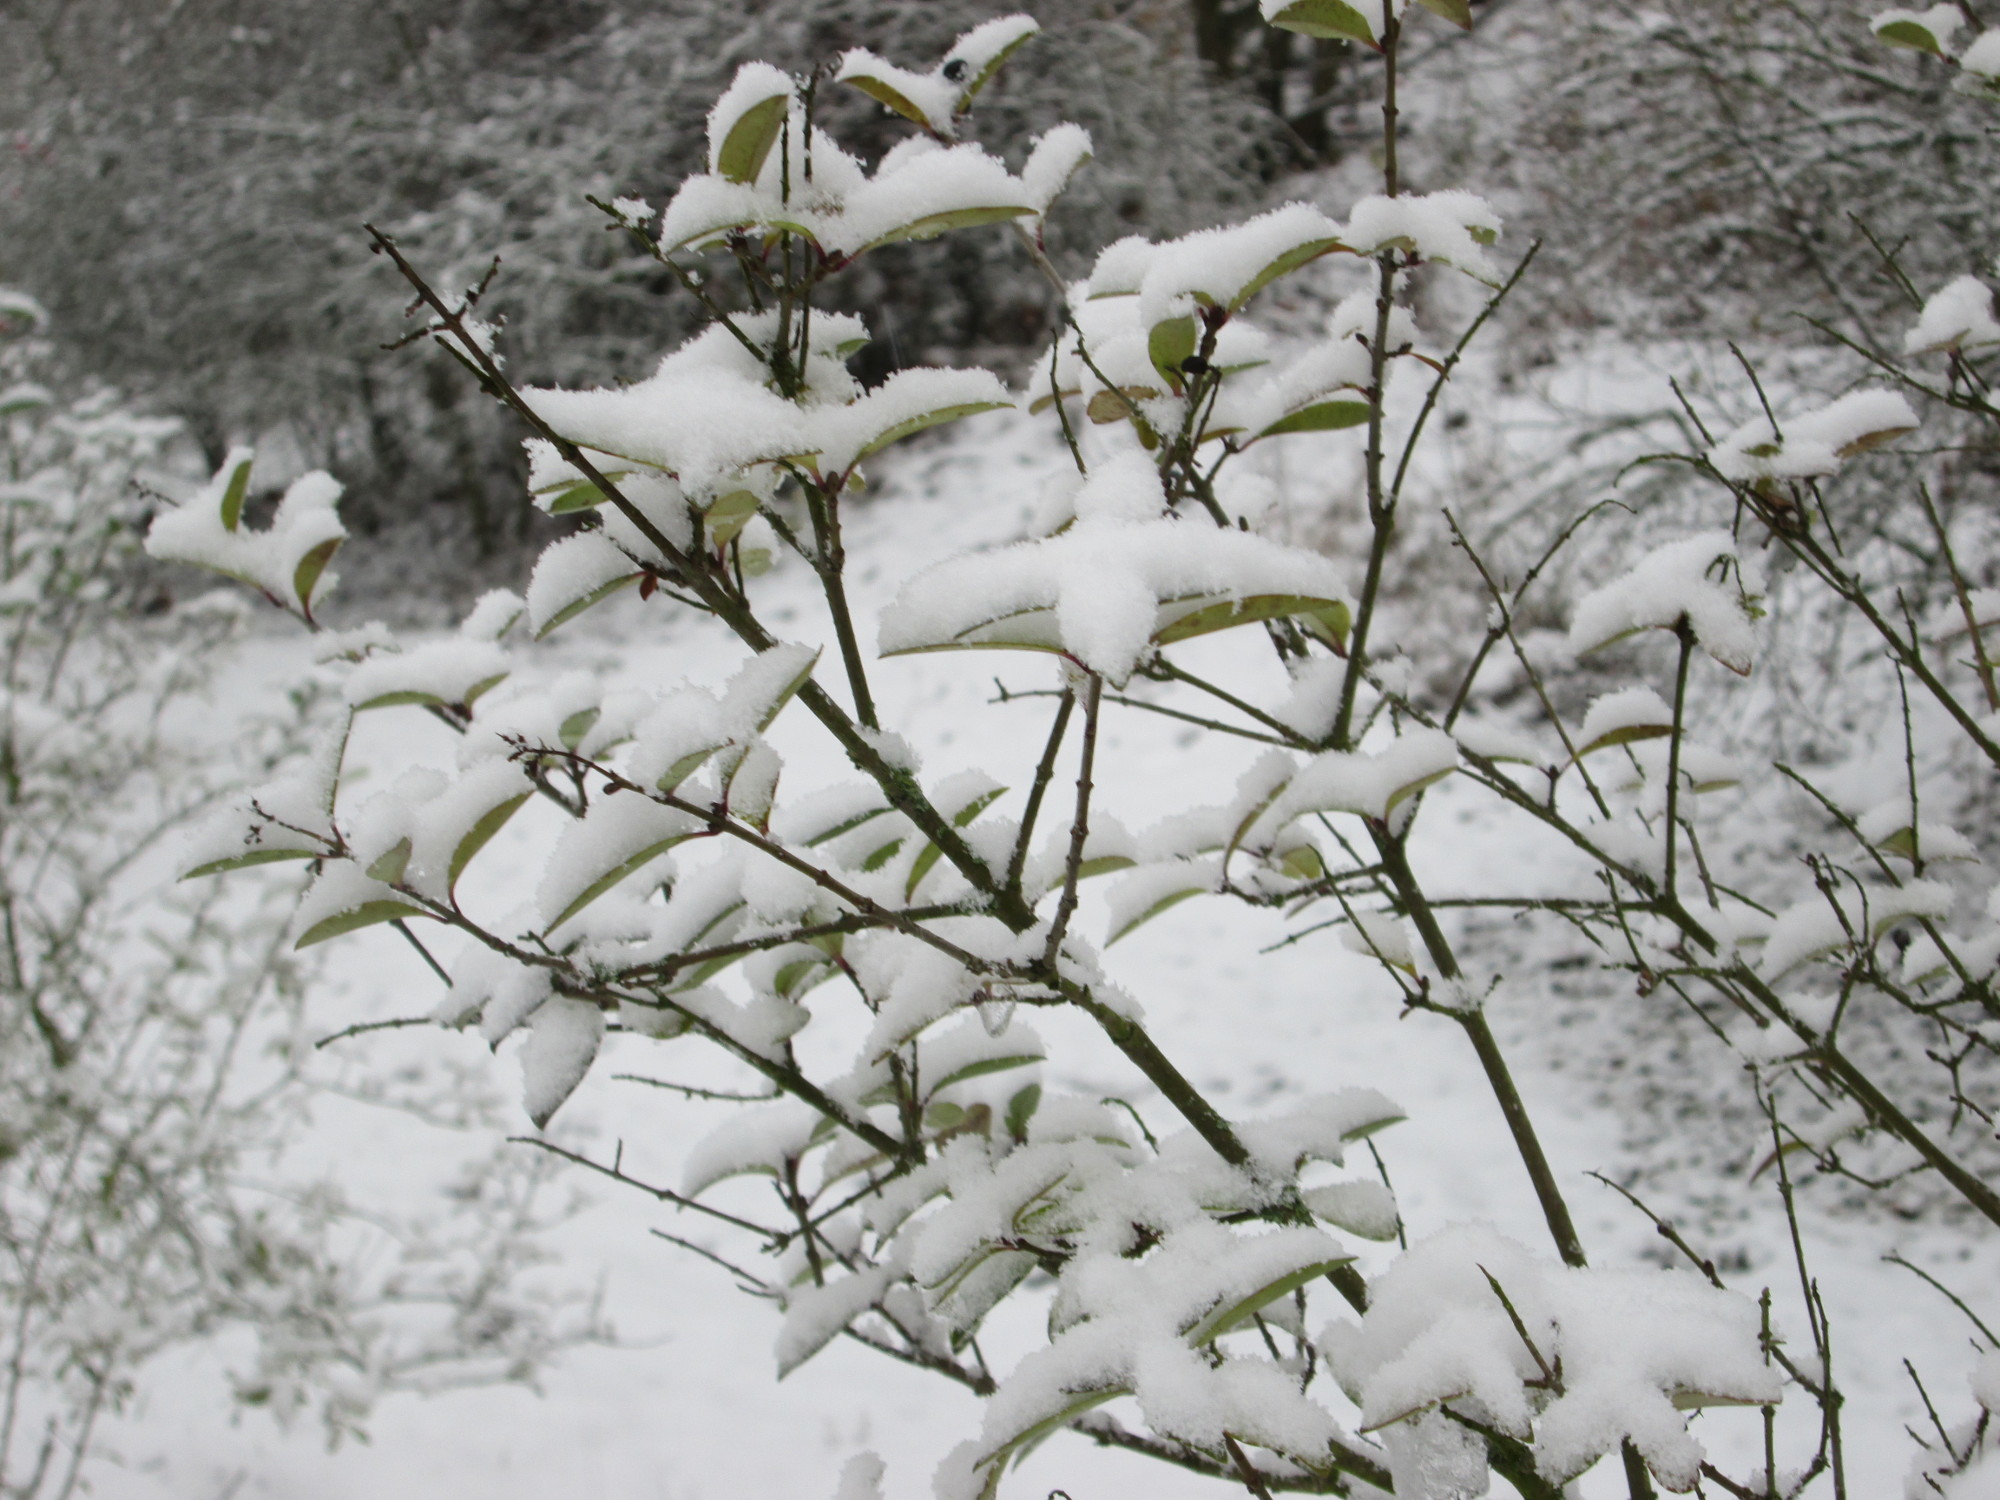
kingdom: Plantae
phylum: Tracheophyta
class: Magnoliopsida
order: Lamiales
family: Oleaceae
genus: Ligustrum
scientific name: Ligustrum vulgare
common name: Wild privet
